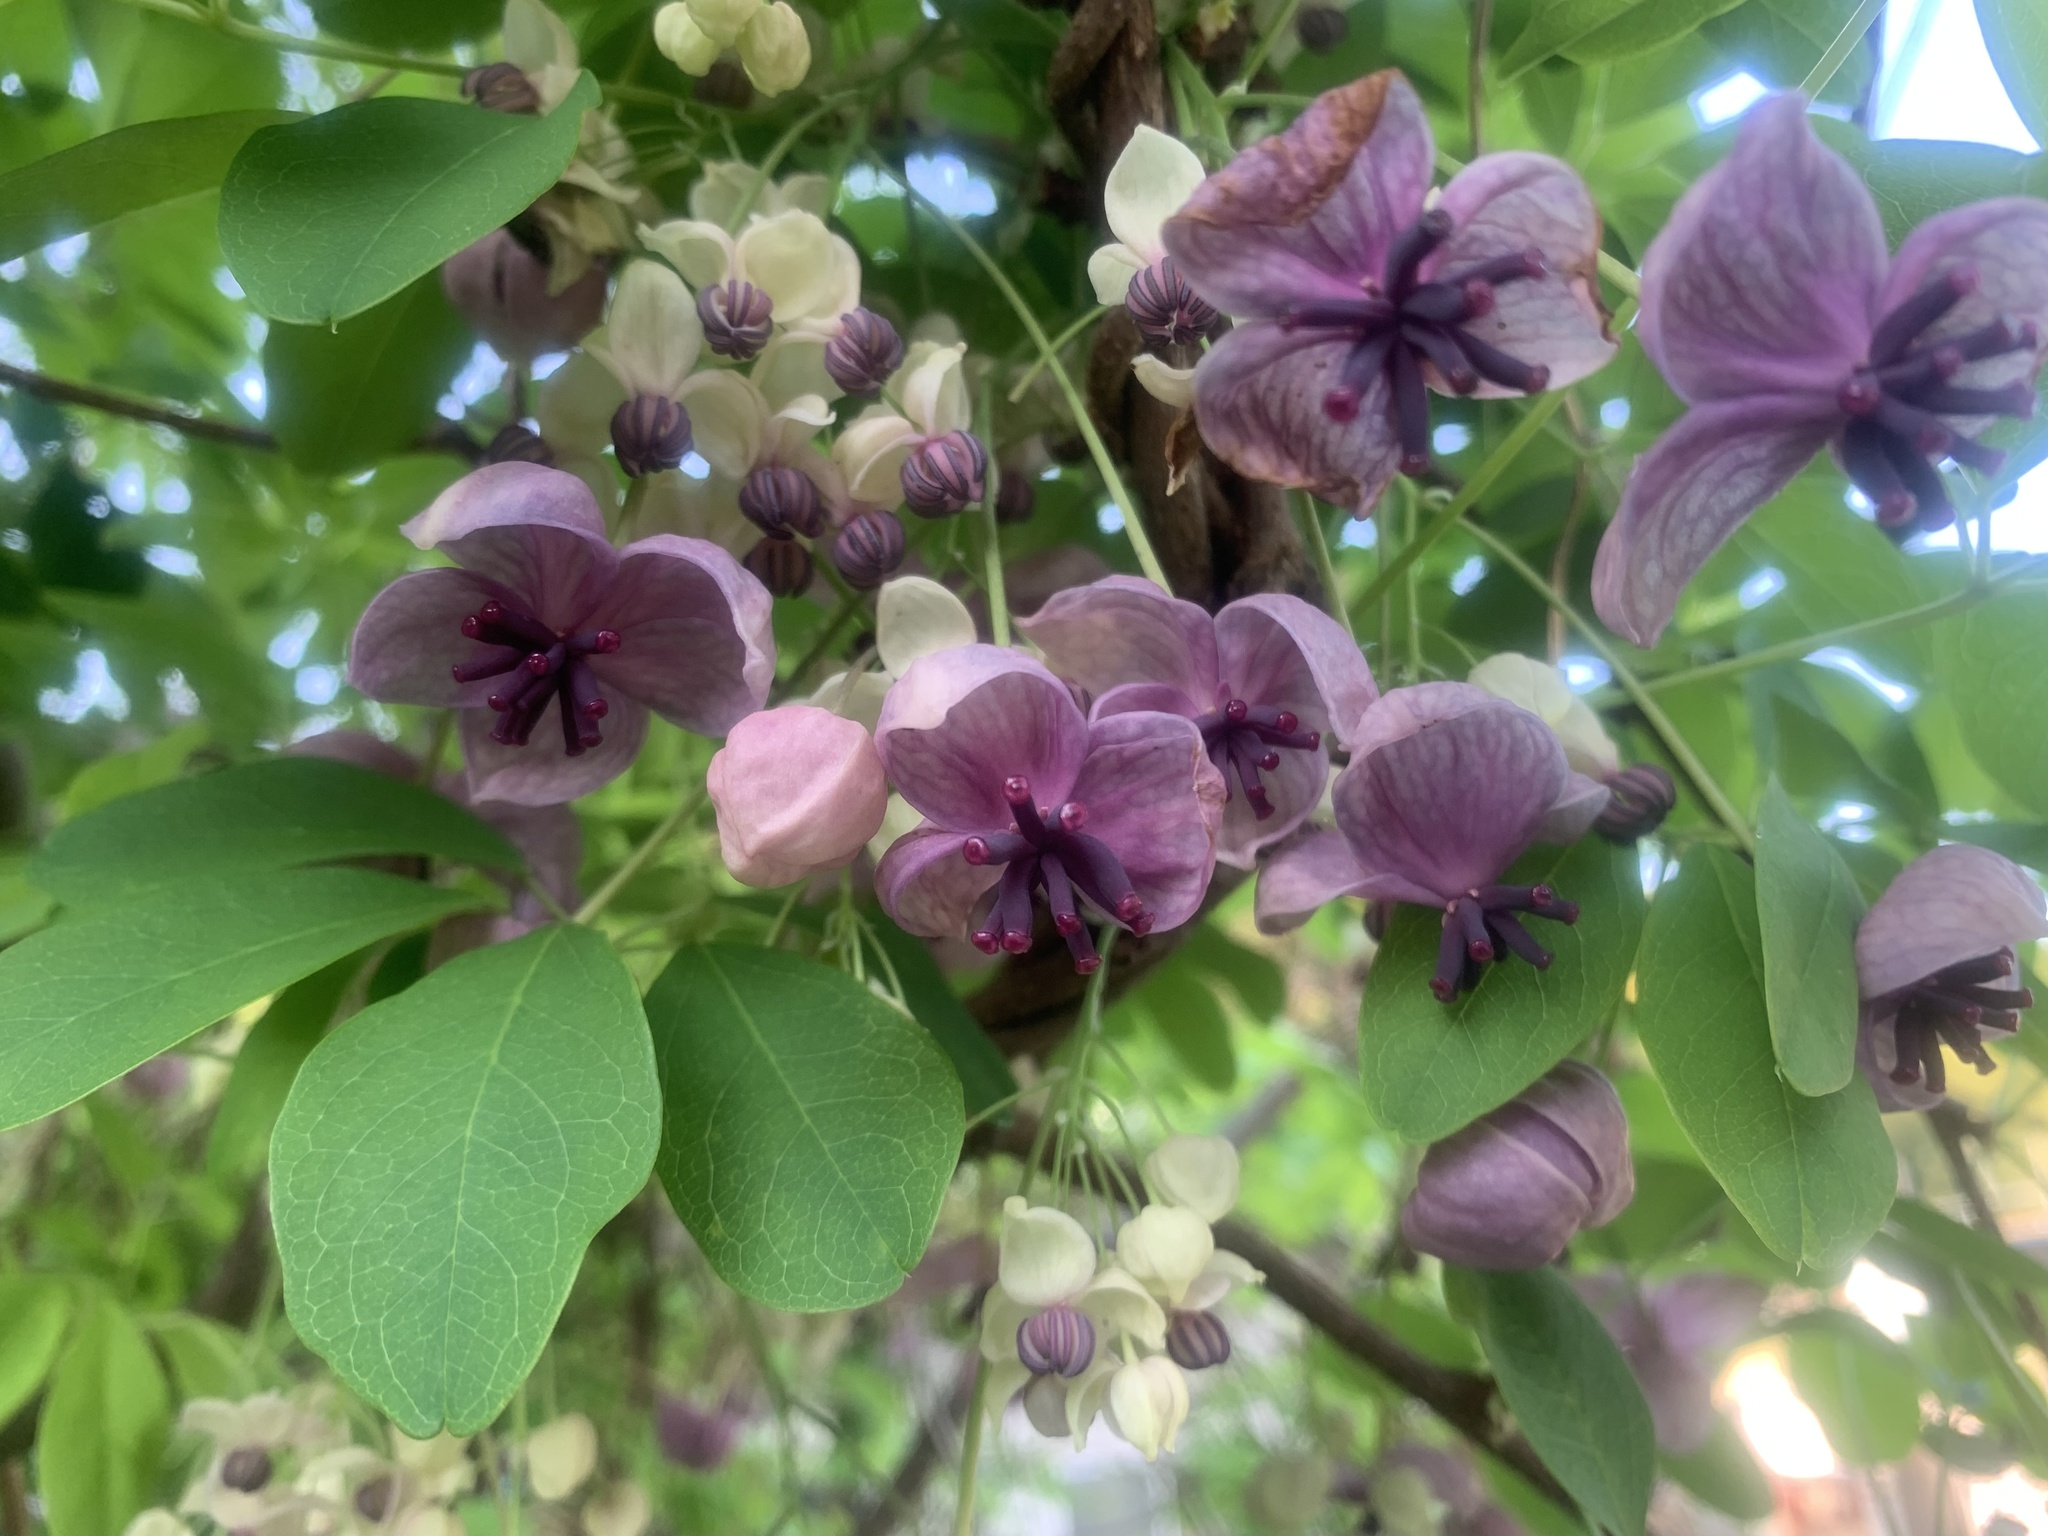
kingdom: Plantae
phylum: Tracheophyta
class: Magnoliopsida
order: Ranunculales
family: Lardizabalaceae
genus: Akebia
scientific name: Akebia quinata
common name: Five-leaf akebia
